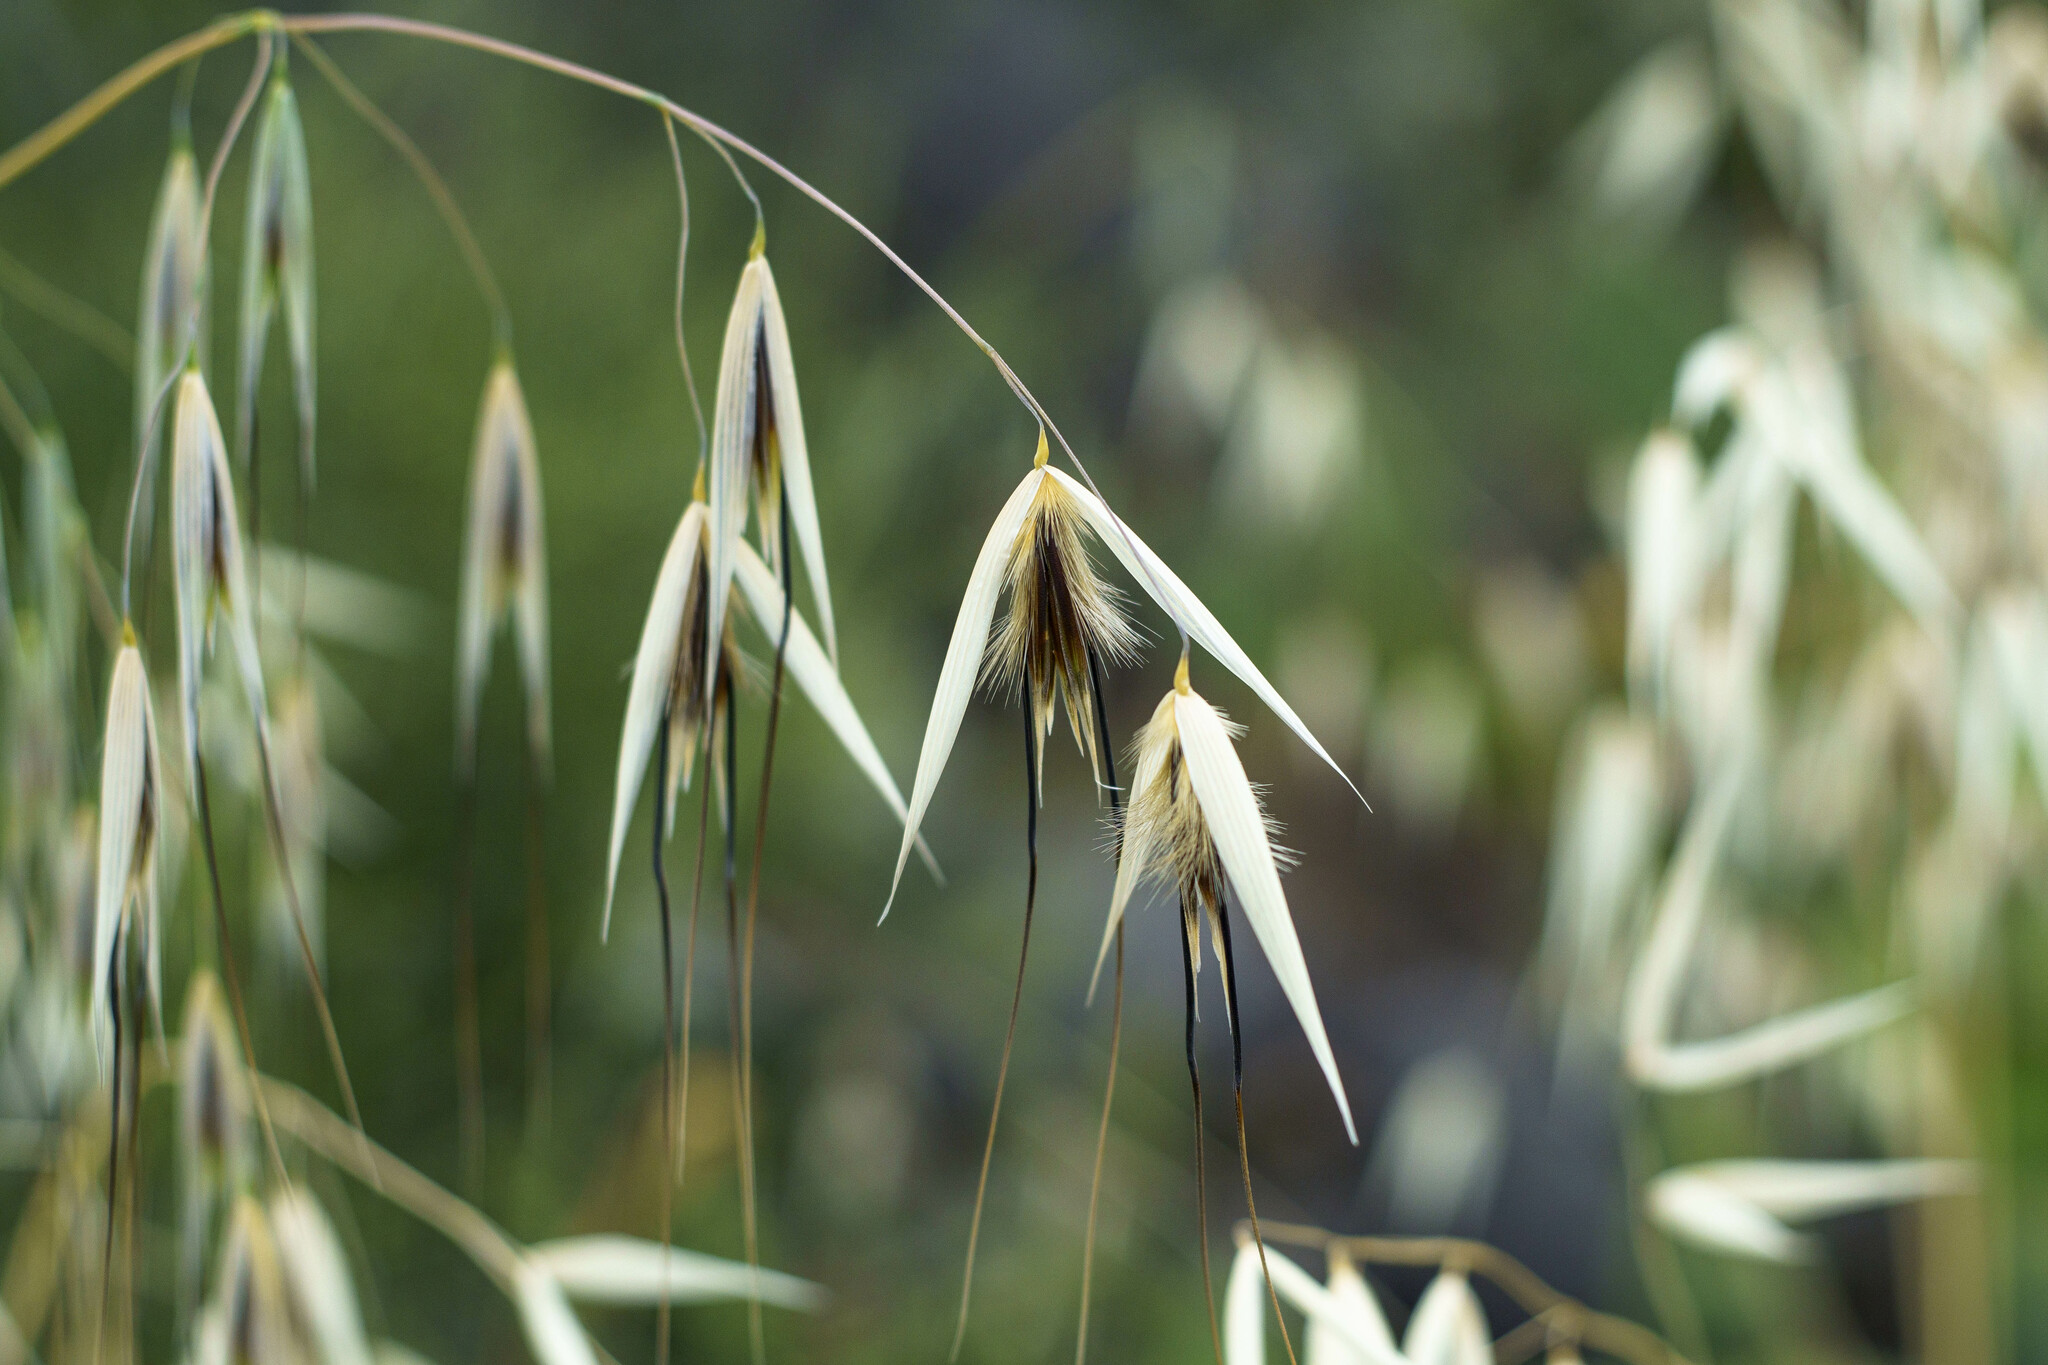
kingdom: Plantae
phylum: Tracheophyta
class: Liliopsida
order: Poales
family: Poaceae
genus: Avena
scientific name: Avena barbata
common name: Slender oat
